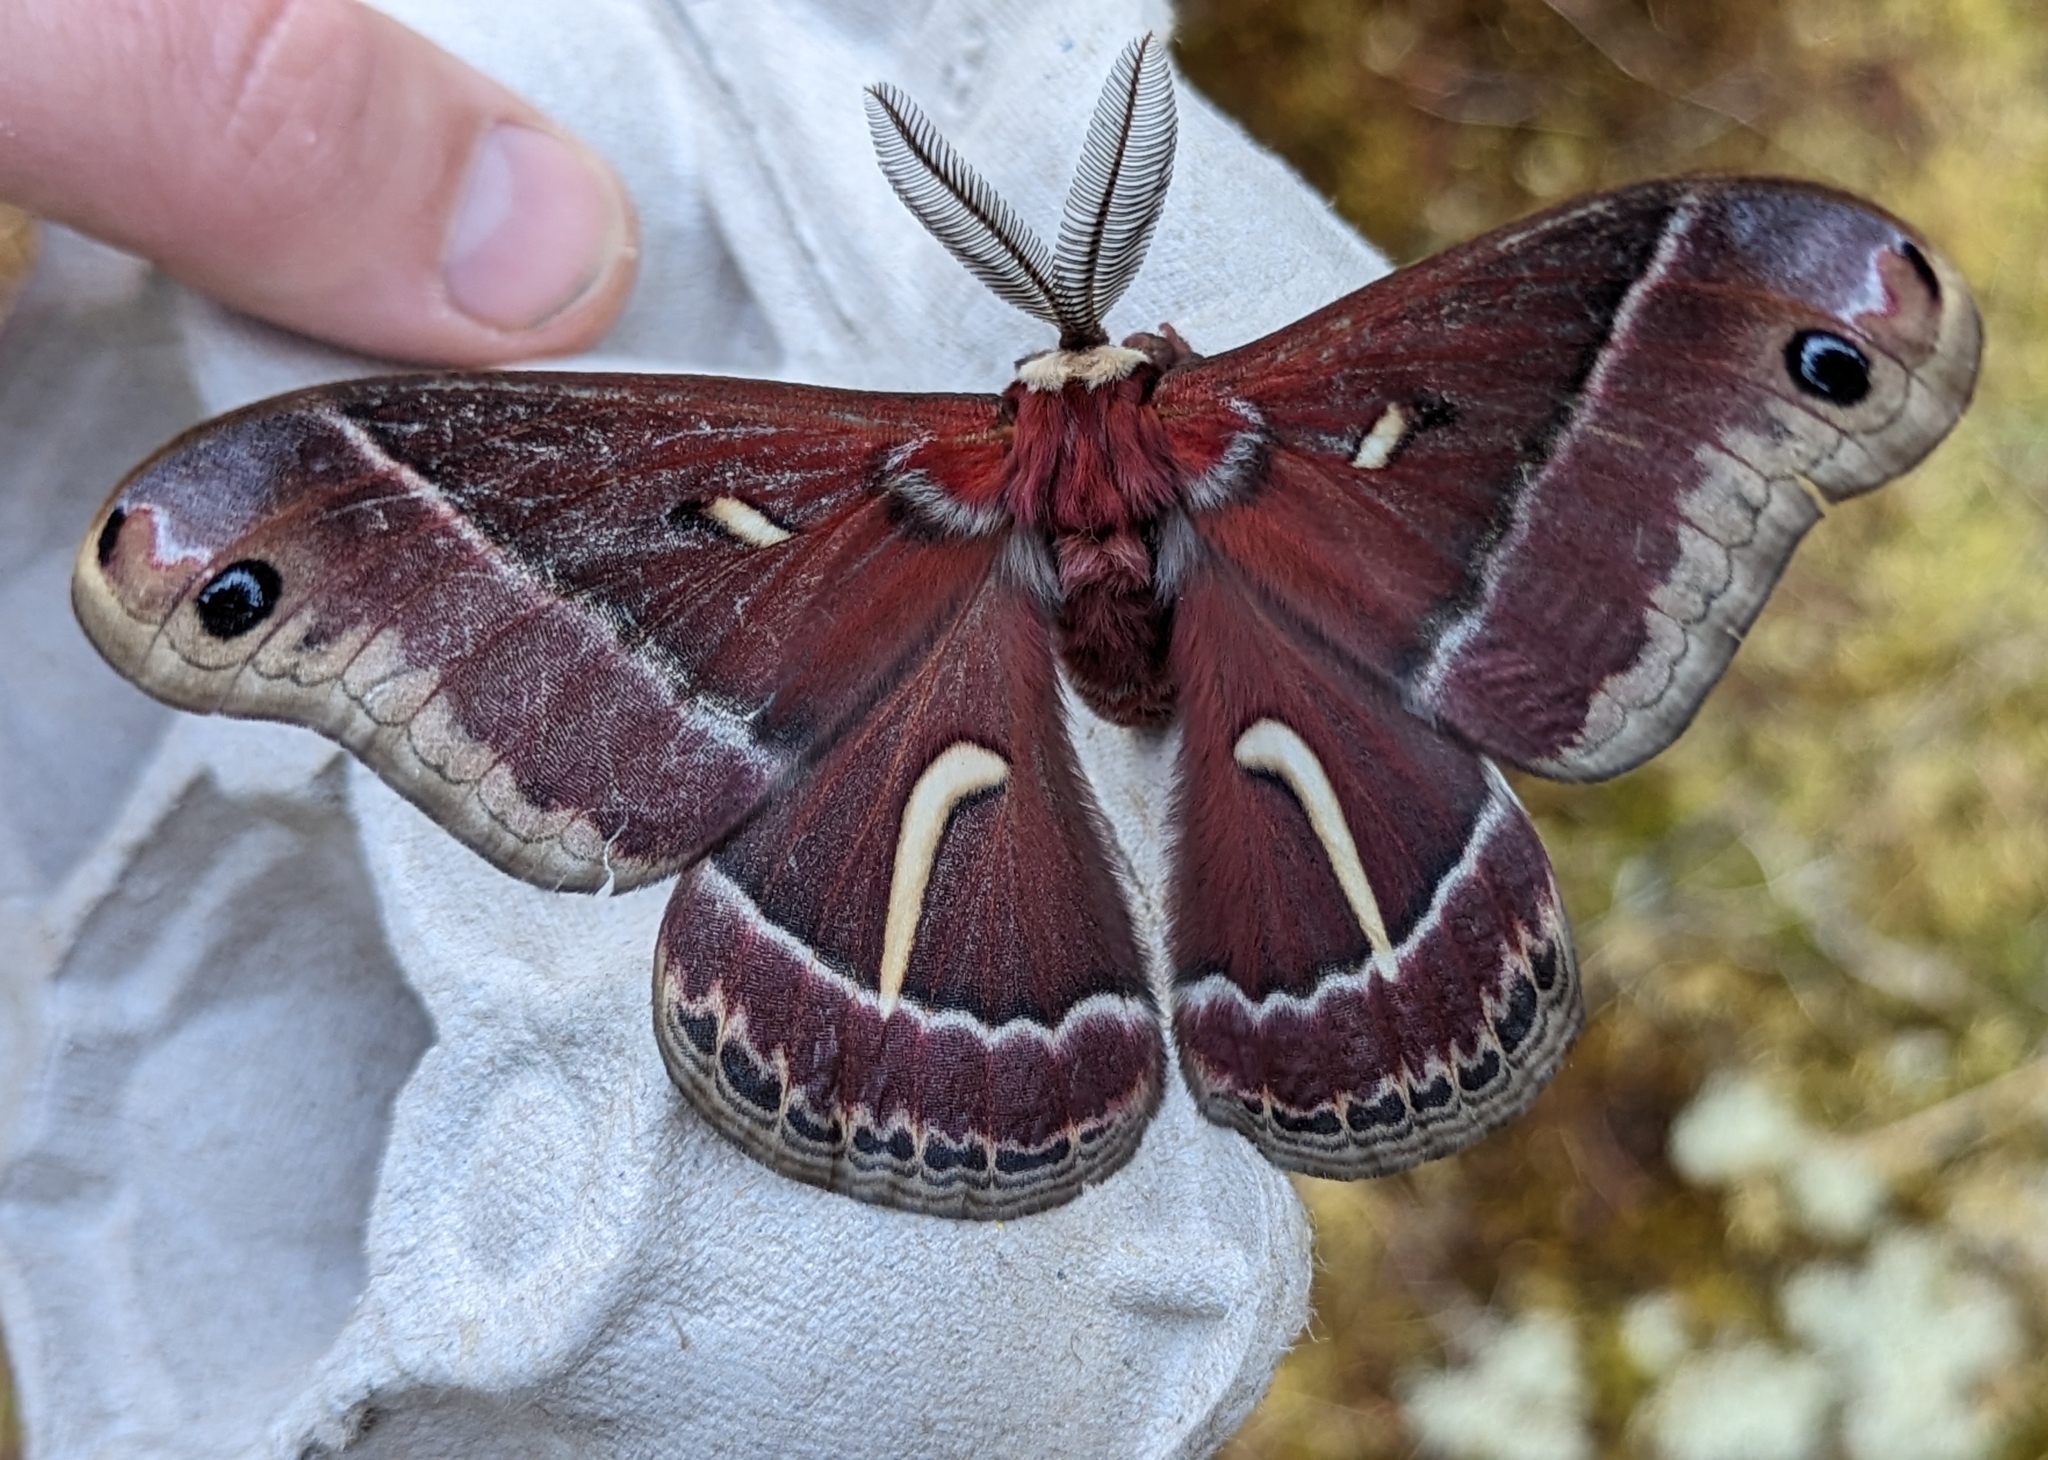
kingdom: Animalia
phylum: Arthropoda
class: Insecta
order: Lepidoptera
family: Saturniidae
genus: Hyalophora
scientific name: Hyalophora euryalus
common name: Ceanothus silkmoth
